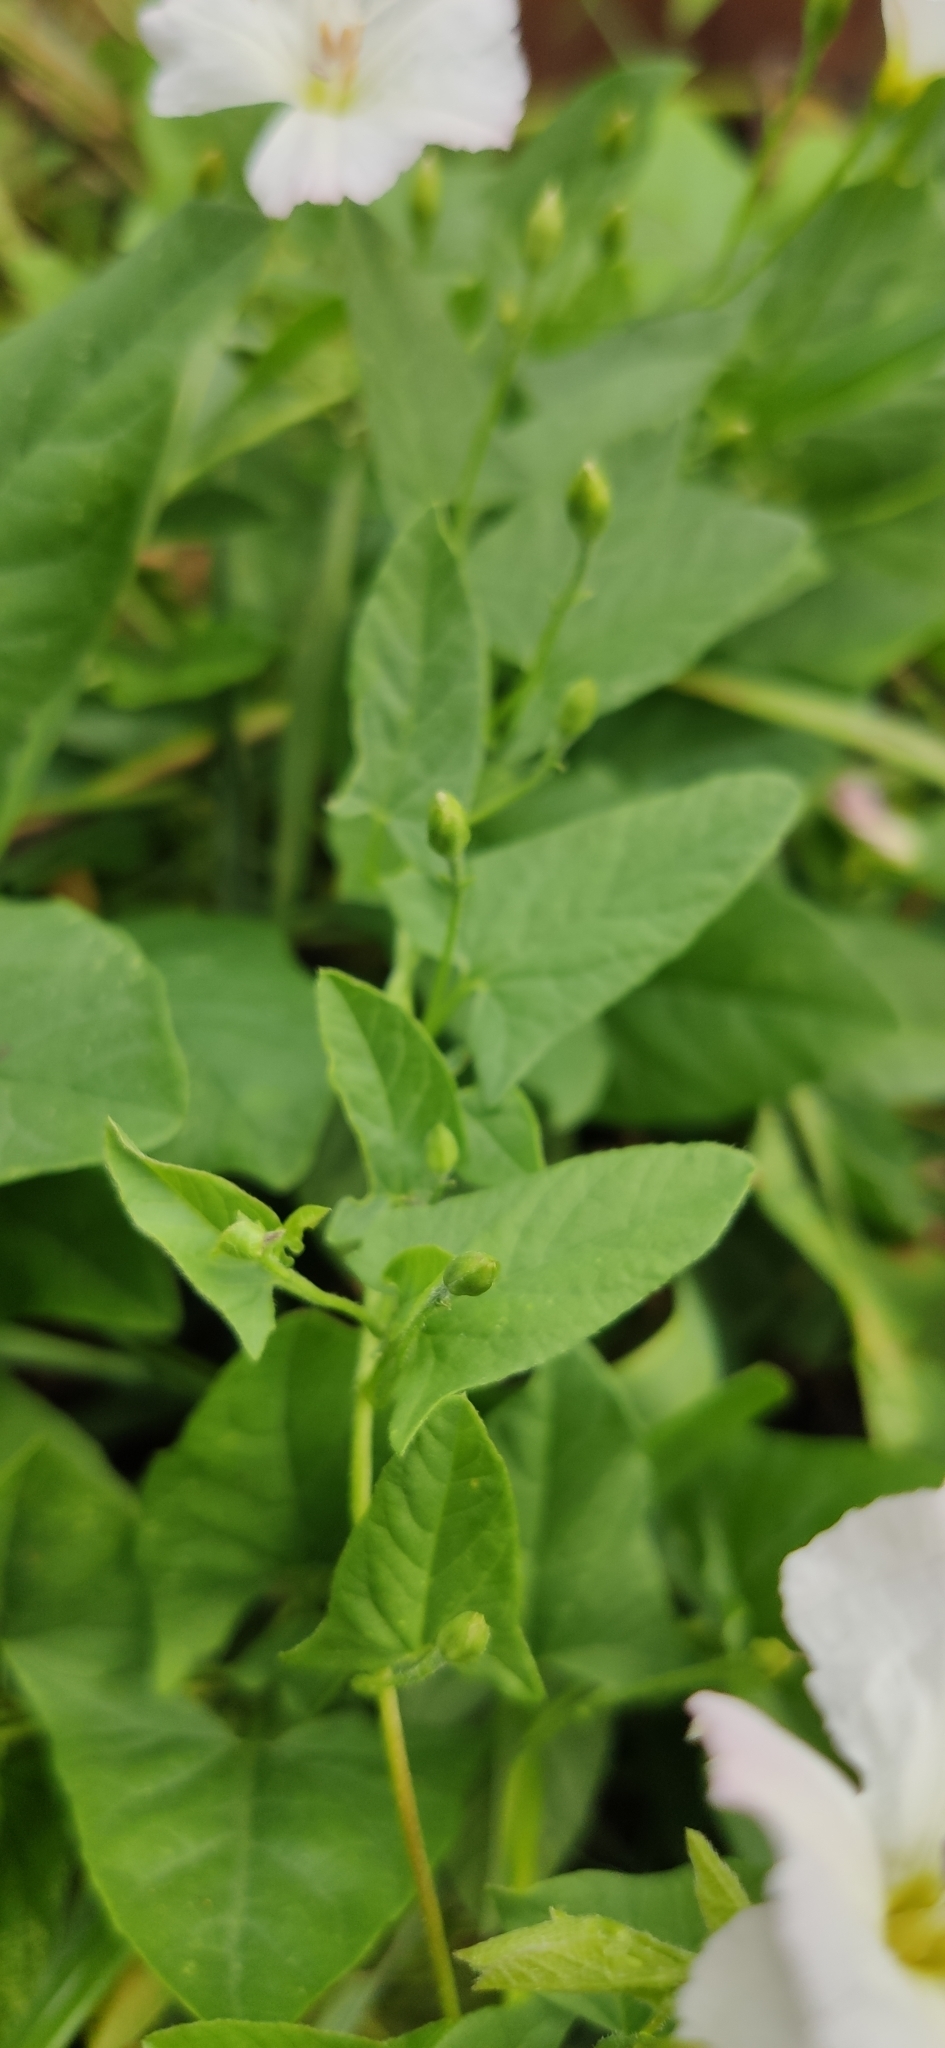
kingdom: Plantae
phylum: Tracheophyta
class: Magnoliopsida
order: Solanales
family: Convolvulaceae
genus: Convolvulus
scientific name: Convolvulus arvensis
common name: Field bindweed
